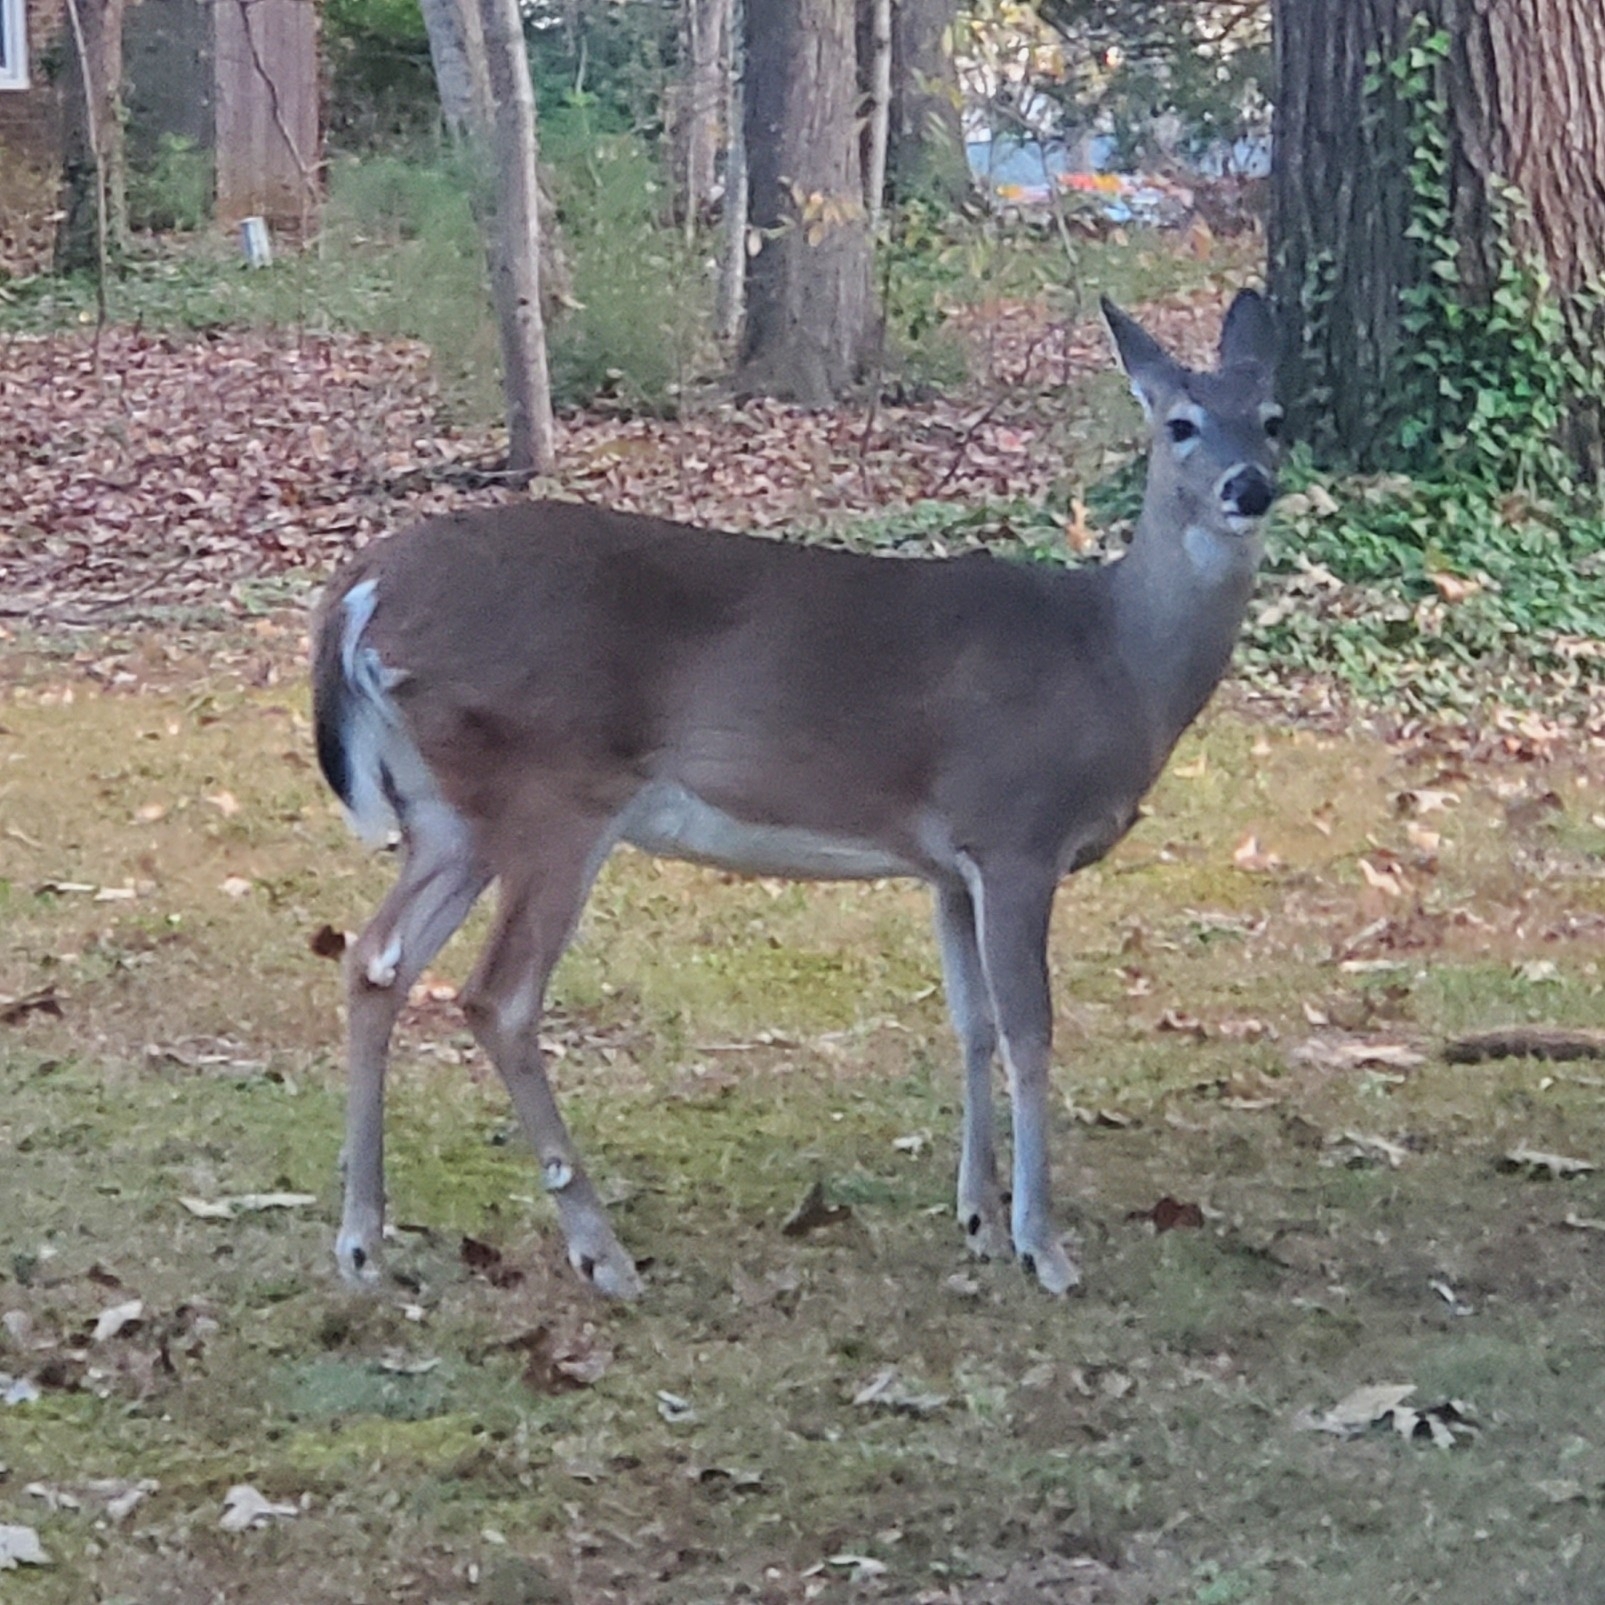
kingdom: Animalia
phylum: Chordata
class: Mammalia
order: Artiodactyla
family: Cervidae
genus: Odocoileus
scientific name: Odocoileus virginianus
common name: White-tailed deer
